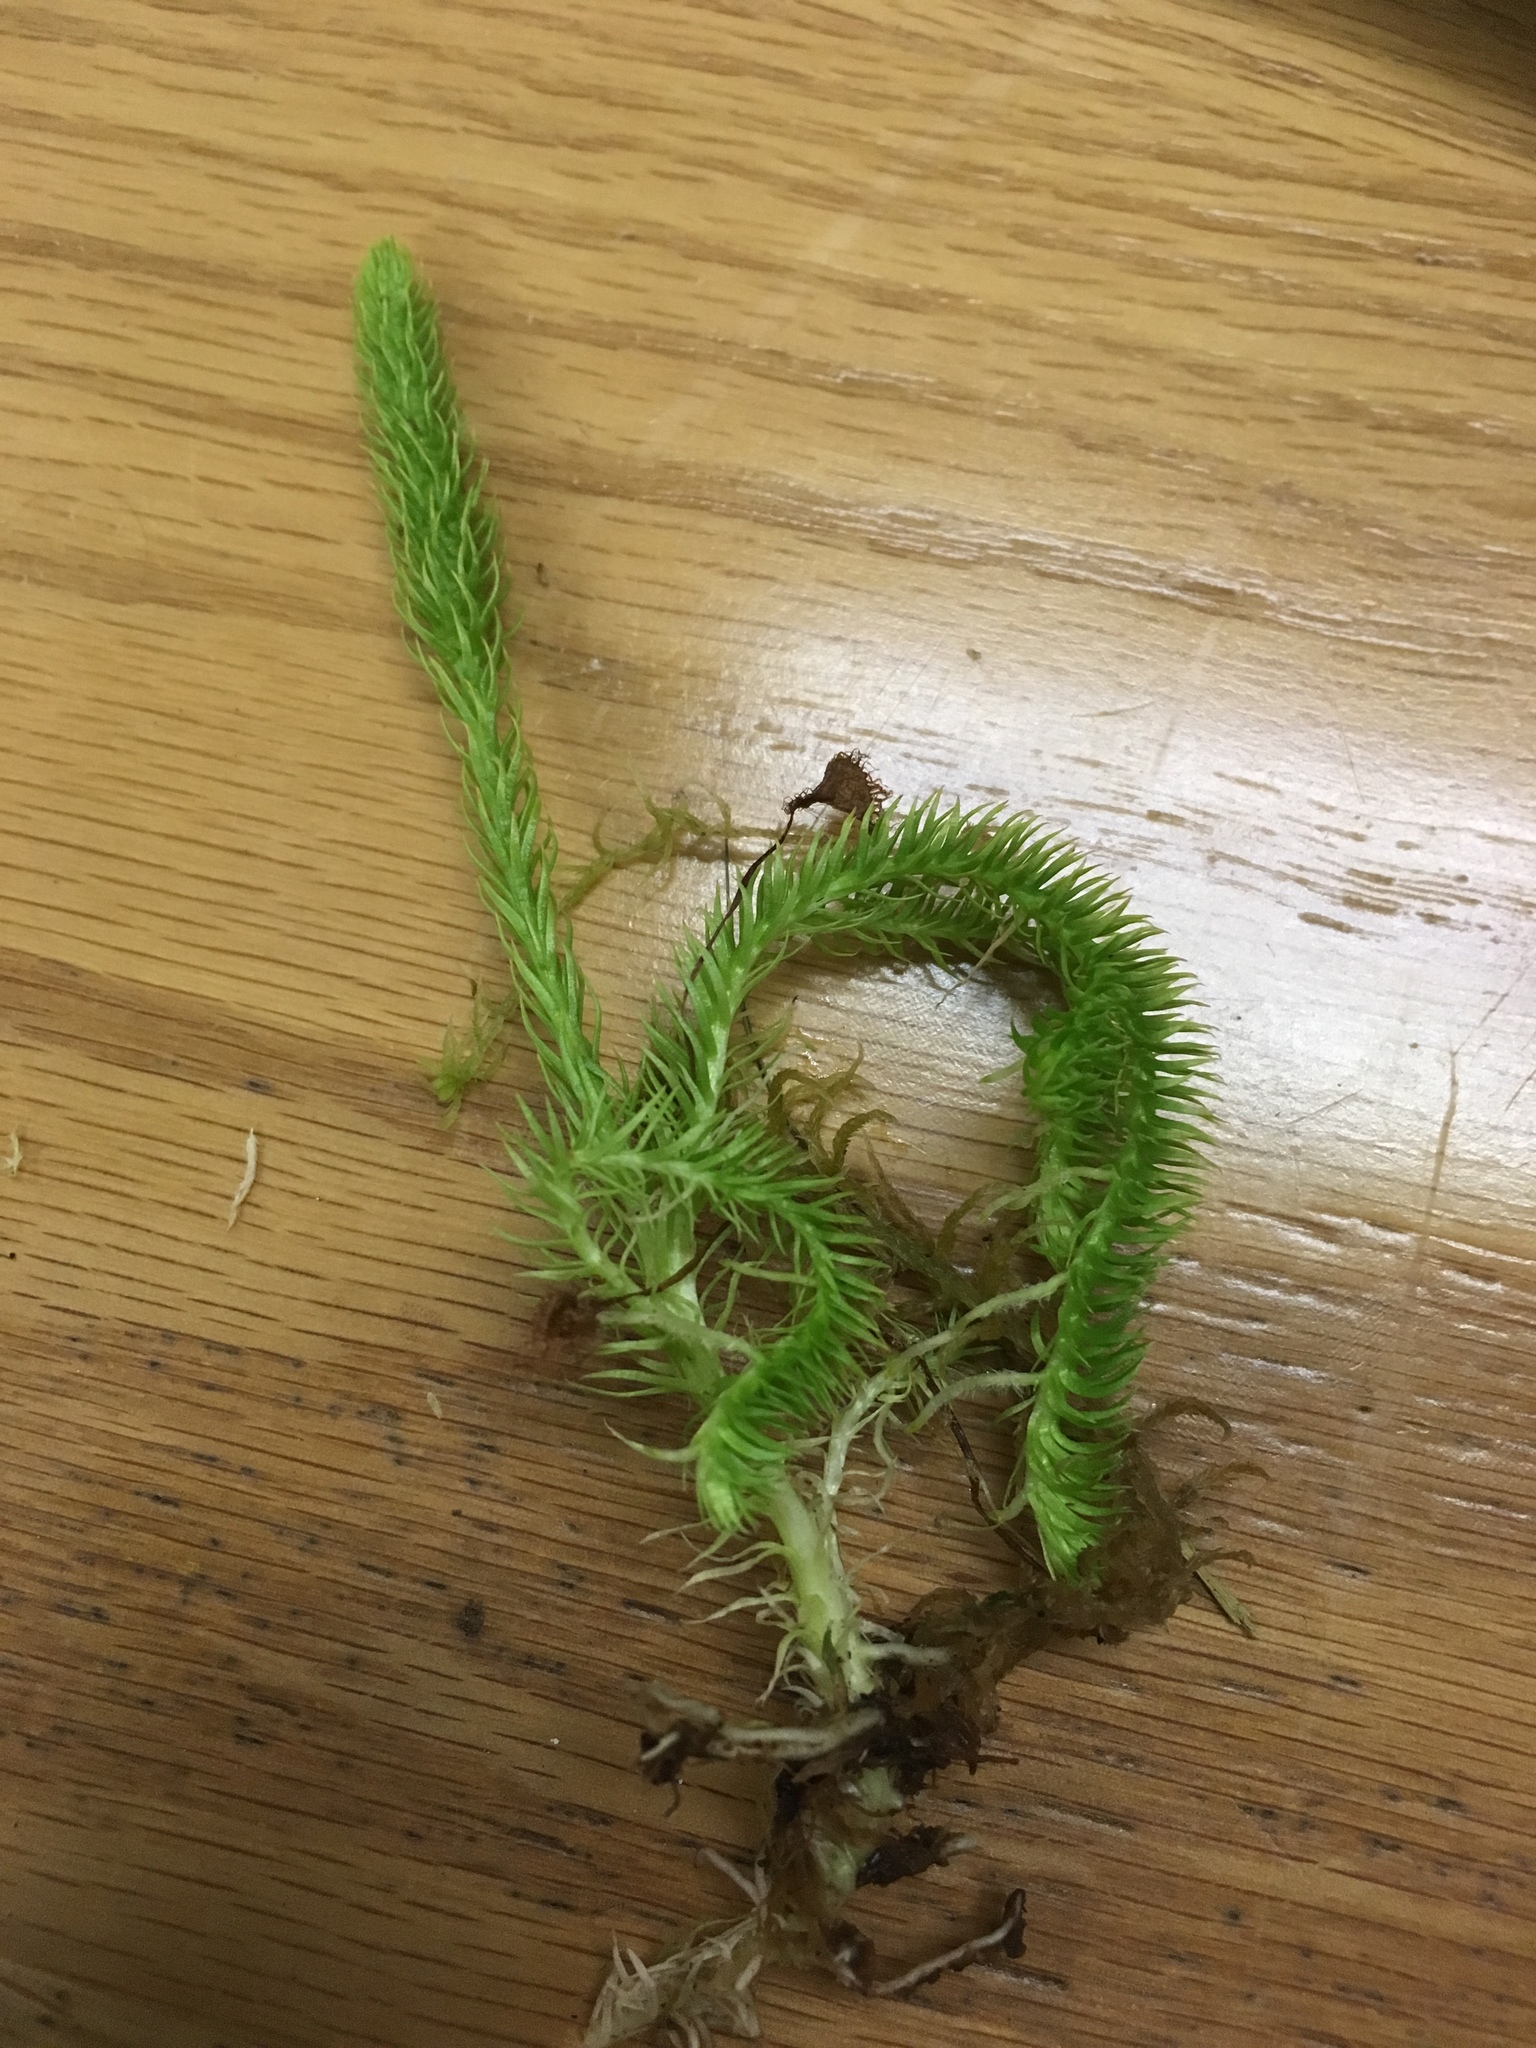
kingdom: Plantae
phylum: Tracheophyta
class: Lycopodiopsida
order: Lycopodiales
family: Lycopodiaceae
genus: Lycopodiella
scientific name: Lycopodiella inundata
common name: Marsh clubmoss
